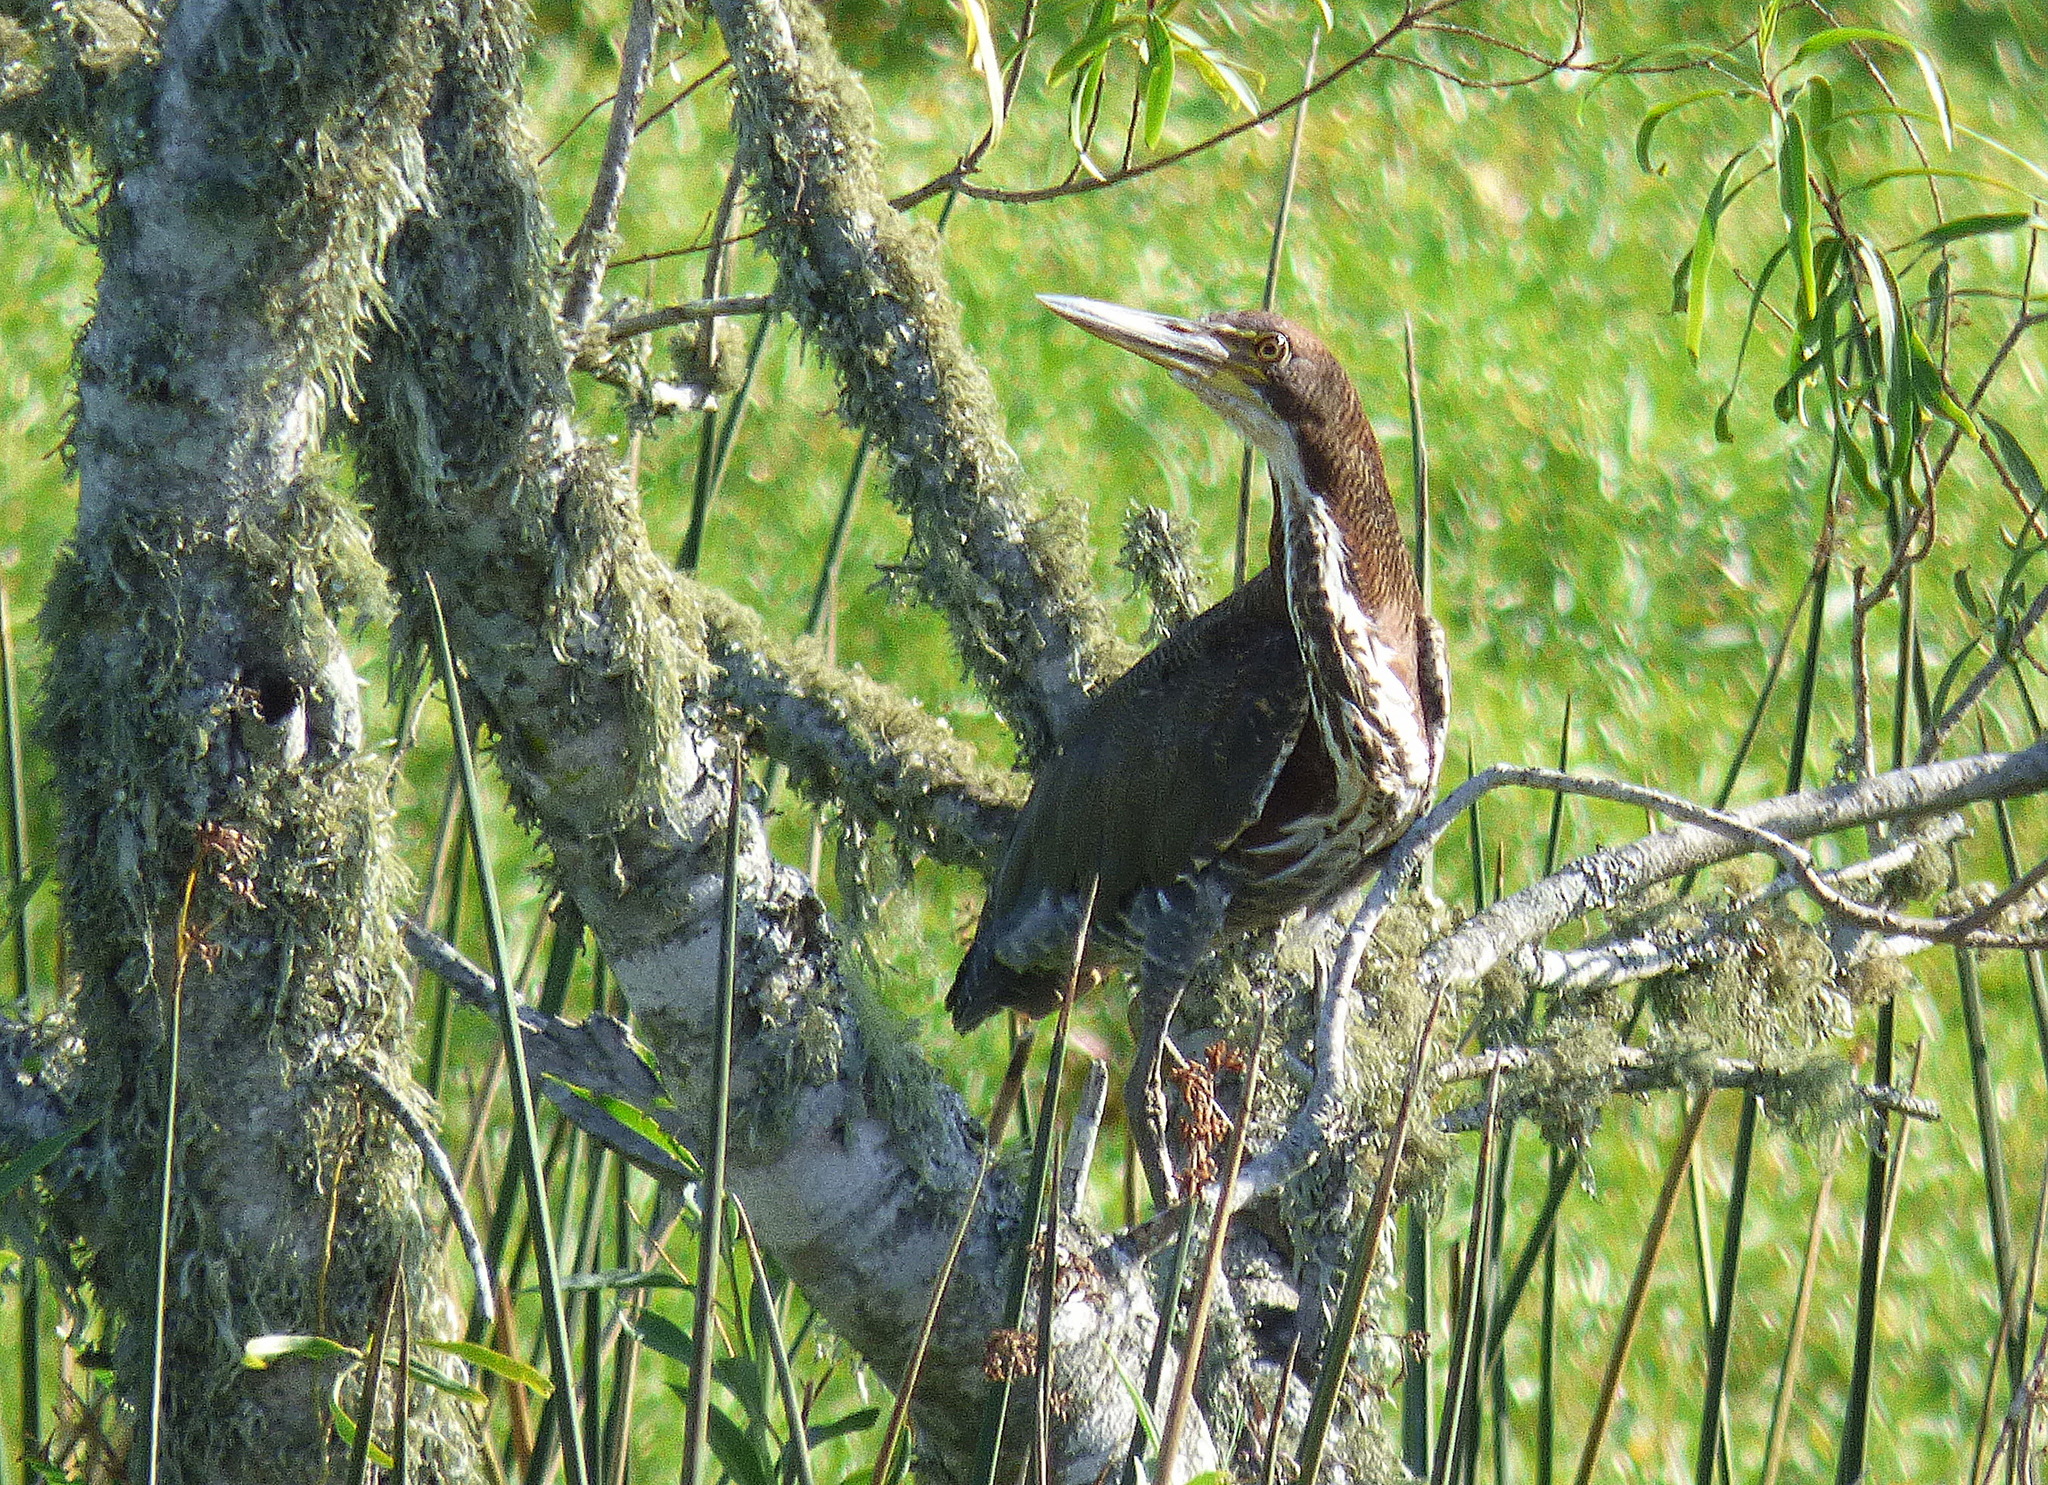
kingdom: Animalia
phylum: Chordata
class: Aves
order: Pelecaniformes
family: Ardeidae
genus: Tigrisoma
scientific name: Tigrisoma lineatum
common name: Rufescent tiger-heron
